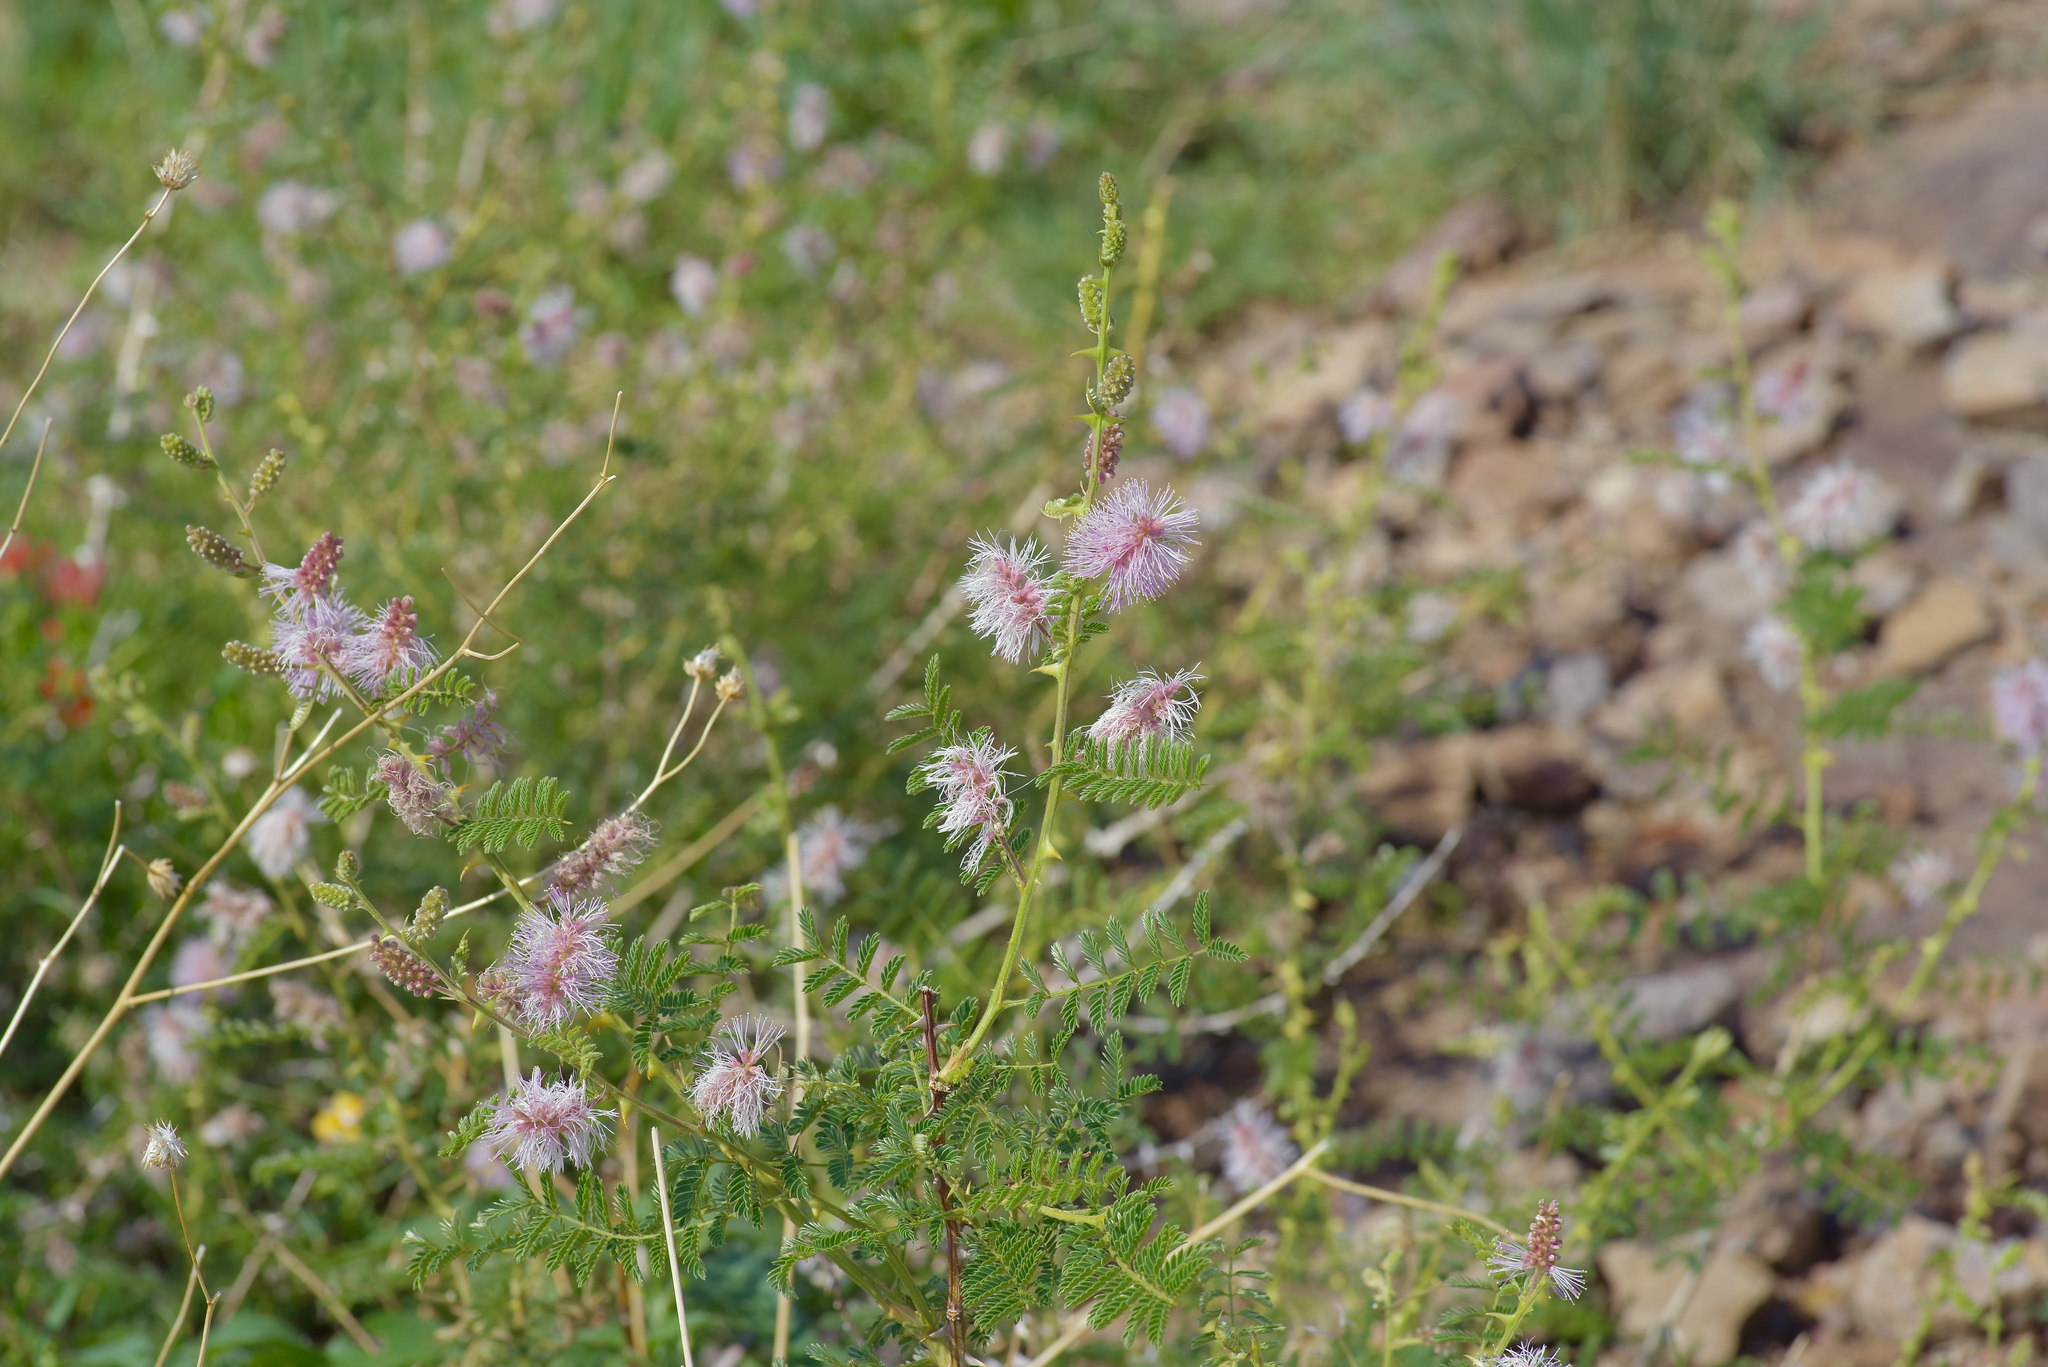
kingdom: Plantae
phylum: Tracheophyta
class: Magnoliopsida
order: Fabales
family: Fabaceae
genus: Mimosa
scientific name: Mimosa dysocarpa
